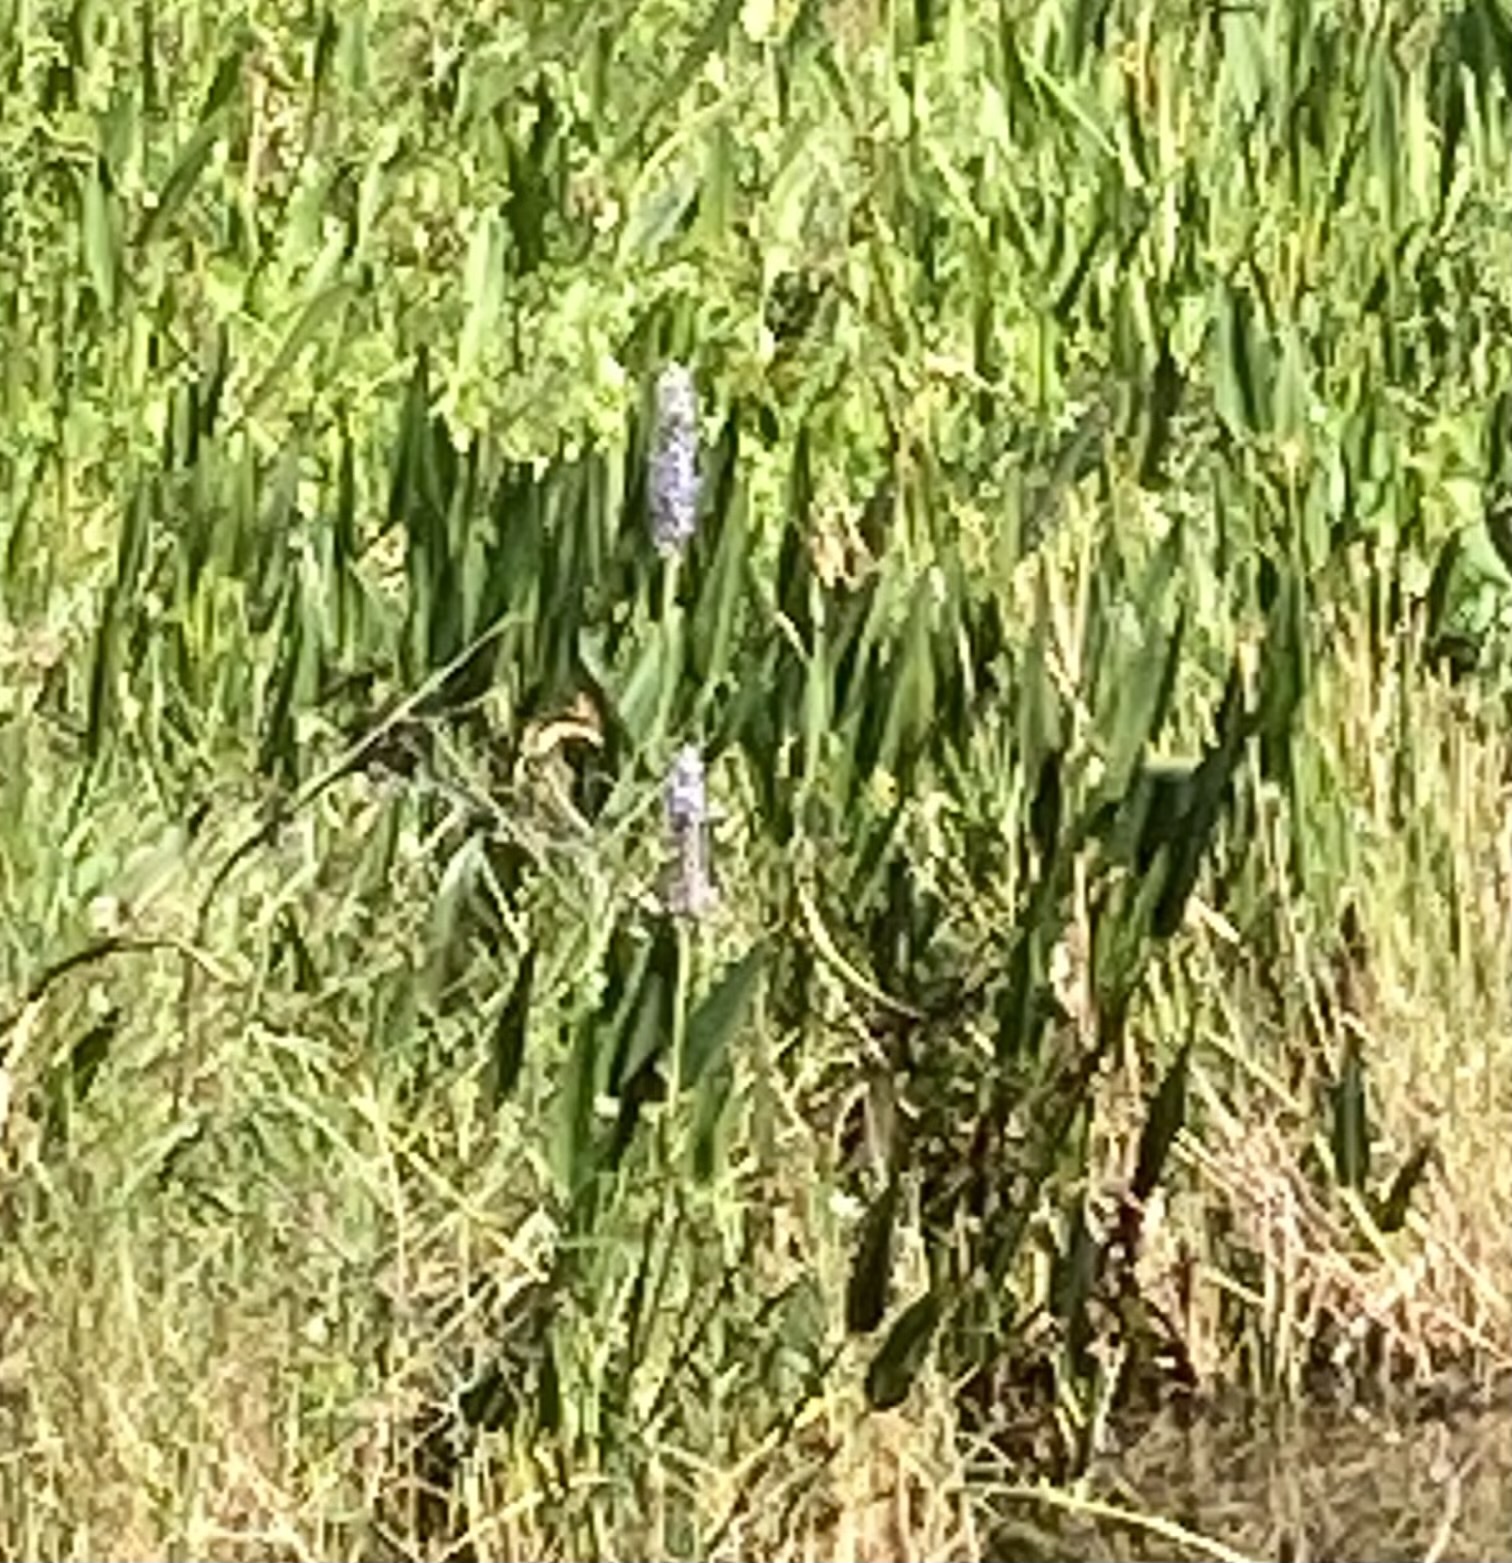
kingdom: Plantae
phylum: Tracheophyta
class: Liliopsida
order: Commelinales
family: Pontederiaceae
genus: Pontederia
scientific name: Pontederia cordata
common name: Pickerelweed
